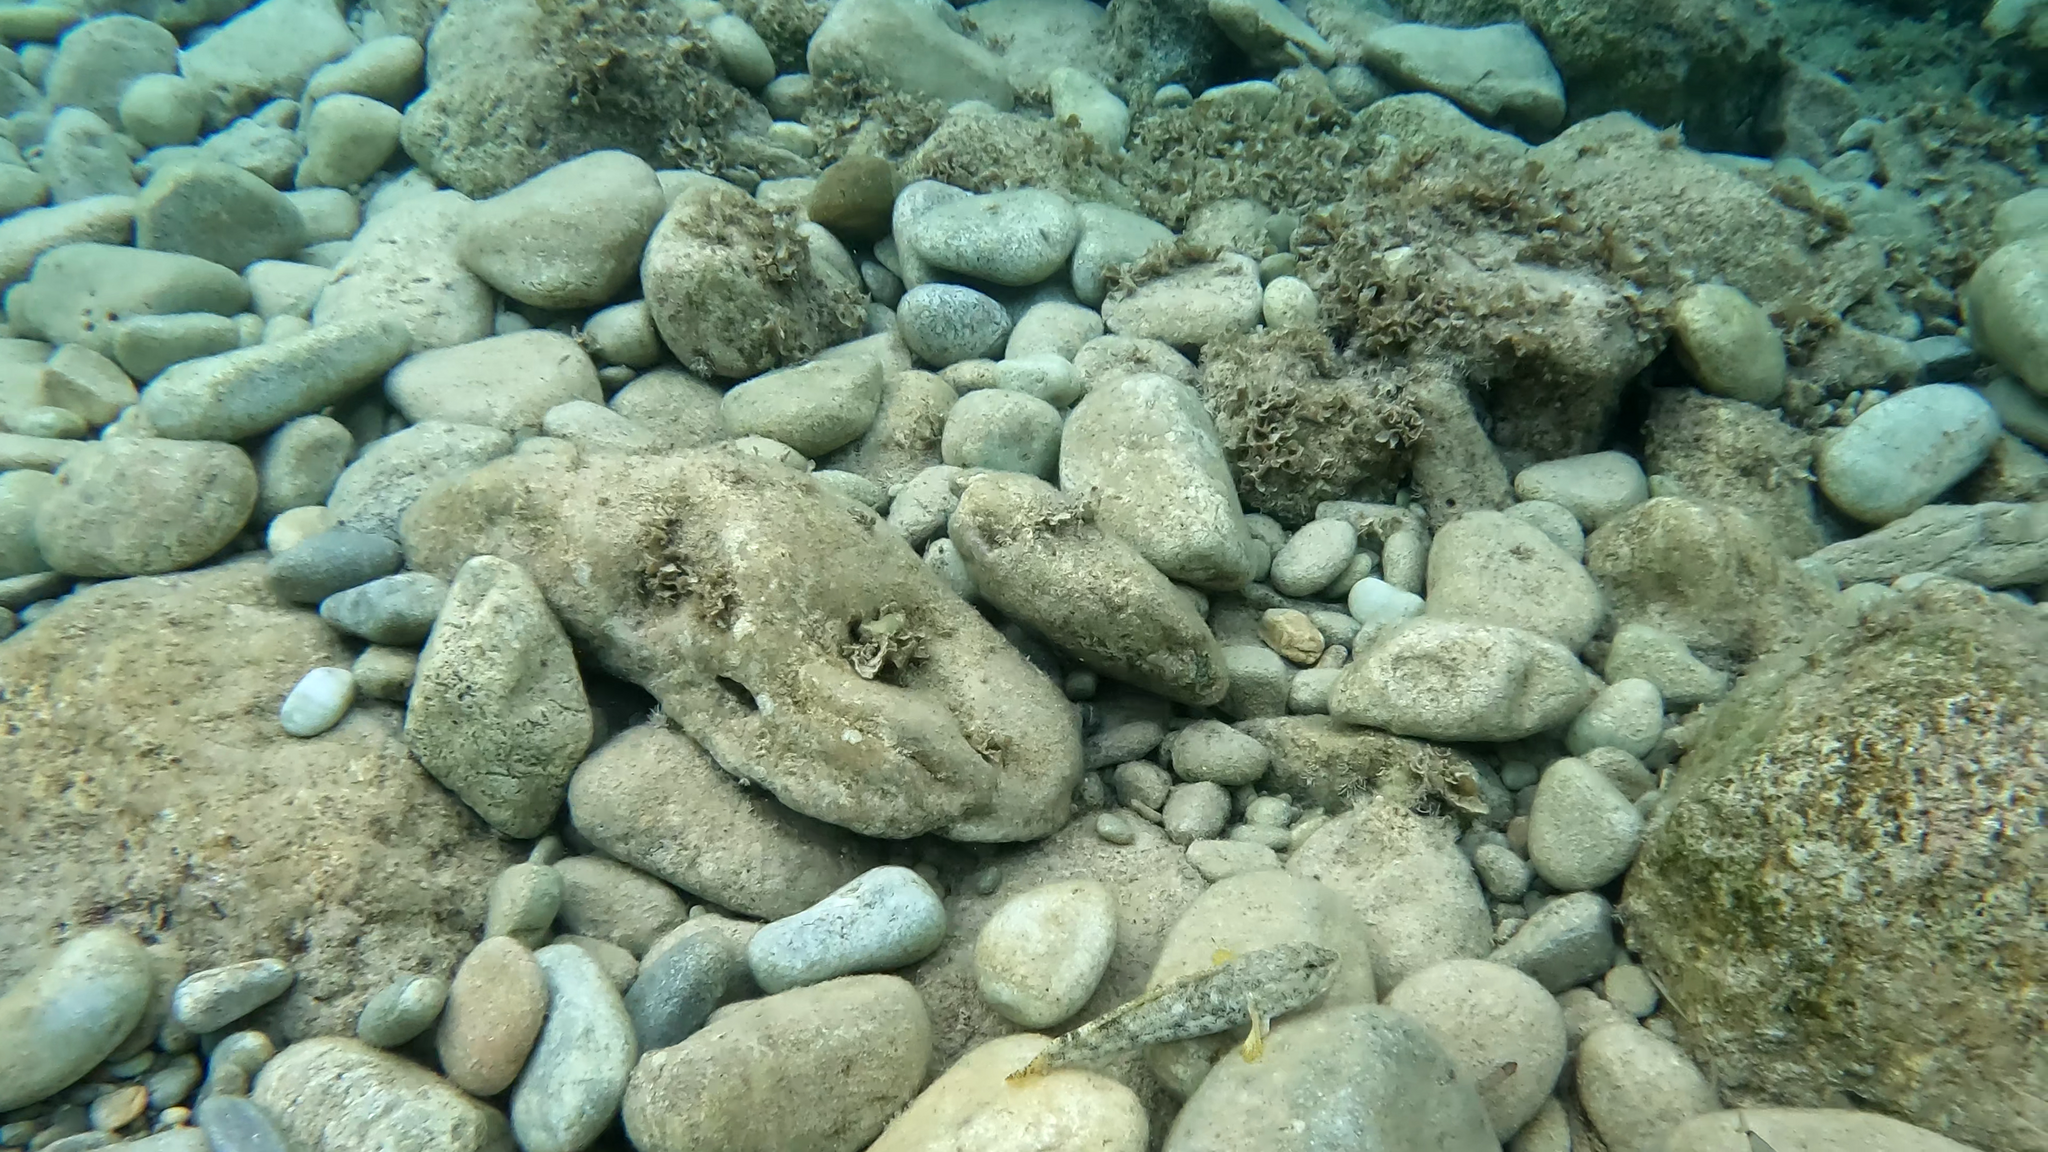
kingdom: Animalia
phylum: Chordata
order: Perciformes
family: Gobiidae
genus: Gobius
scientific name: Gobius cobitis
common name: Giant goby
